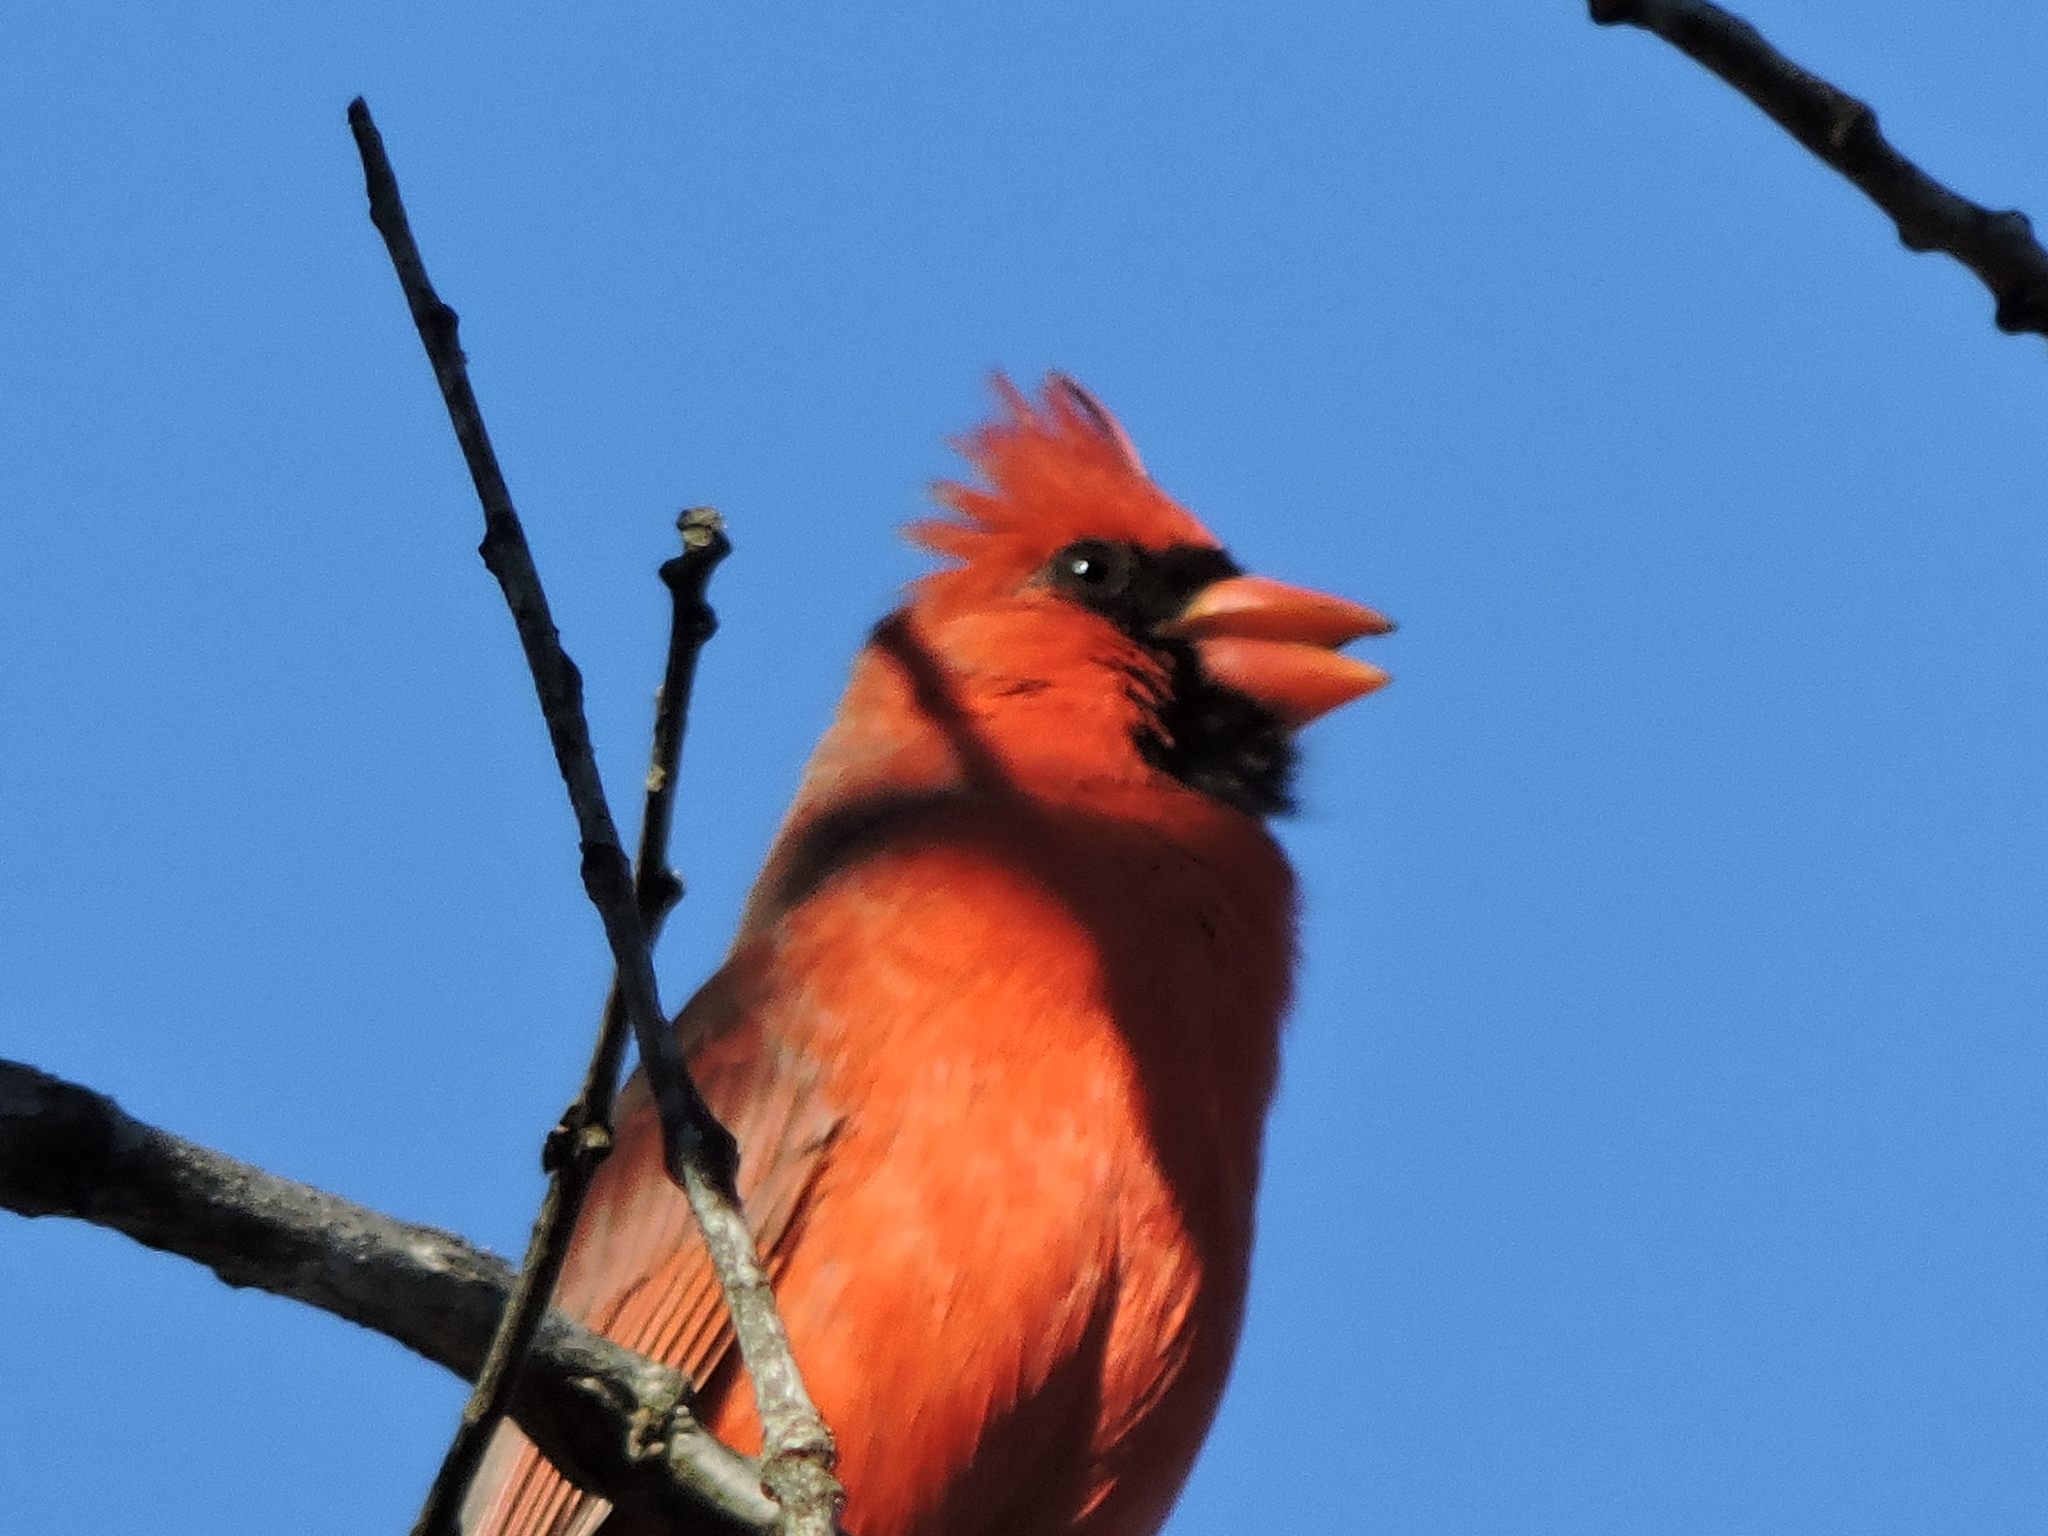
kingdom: Animalia
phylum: Chordata
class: Aves
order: Passeriformes
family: Cardinalidae
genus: Cardinalis
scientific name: Cardinalis cardinalis
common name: Northern cardinal
